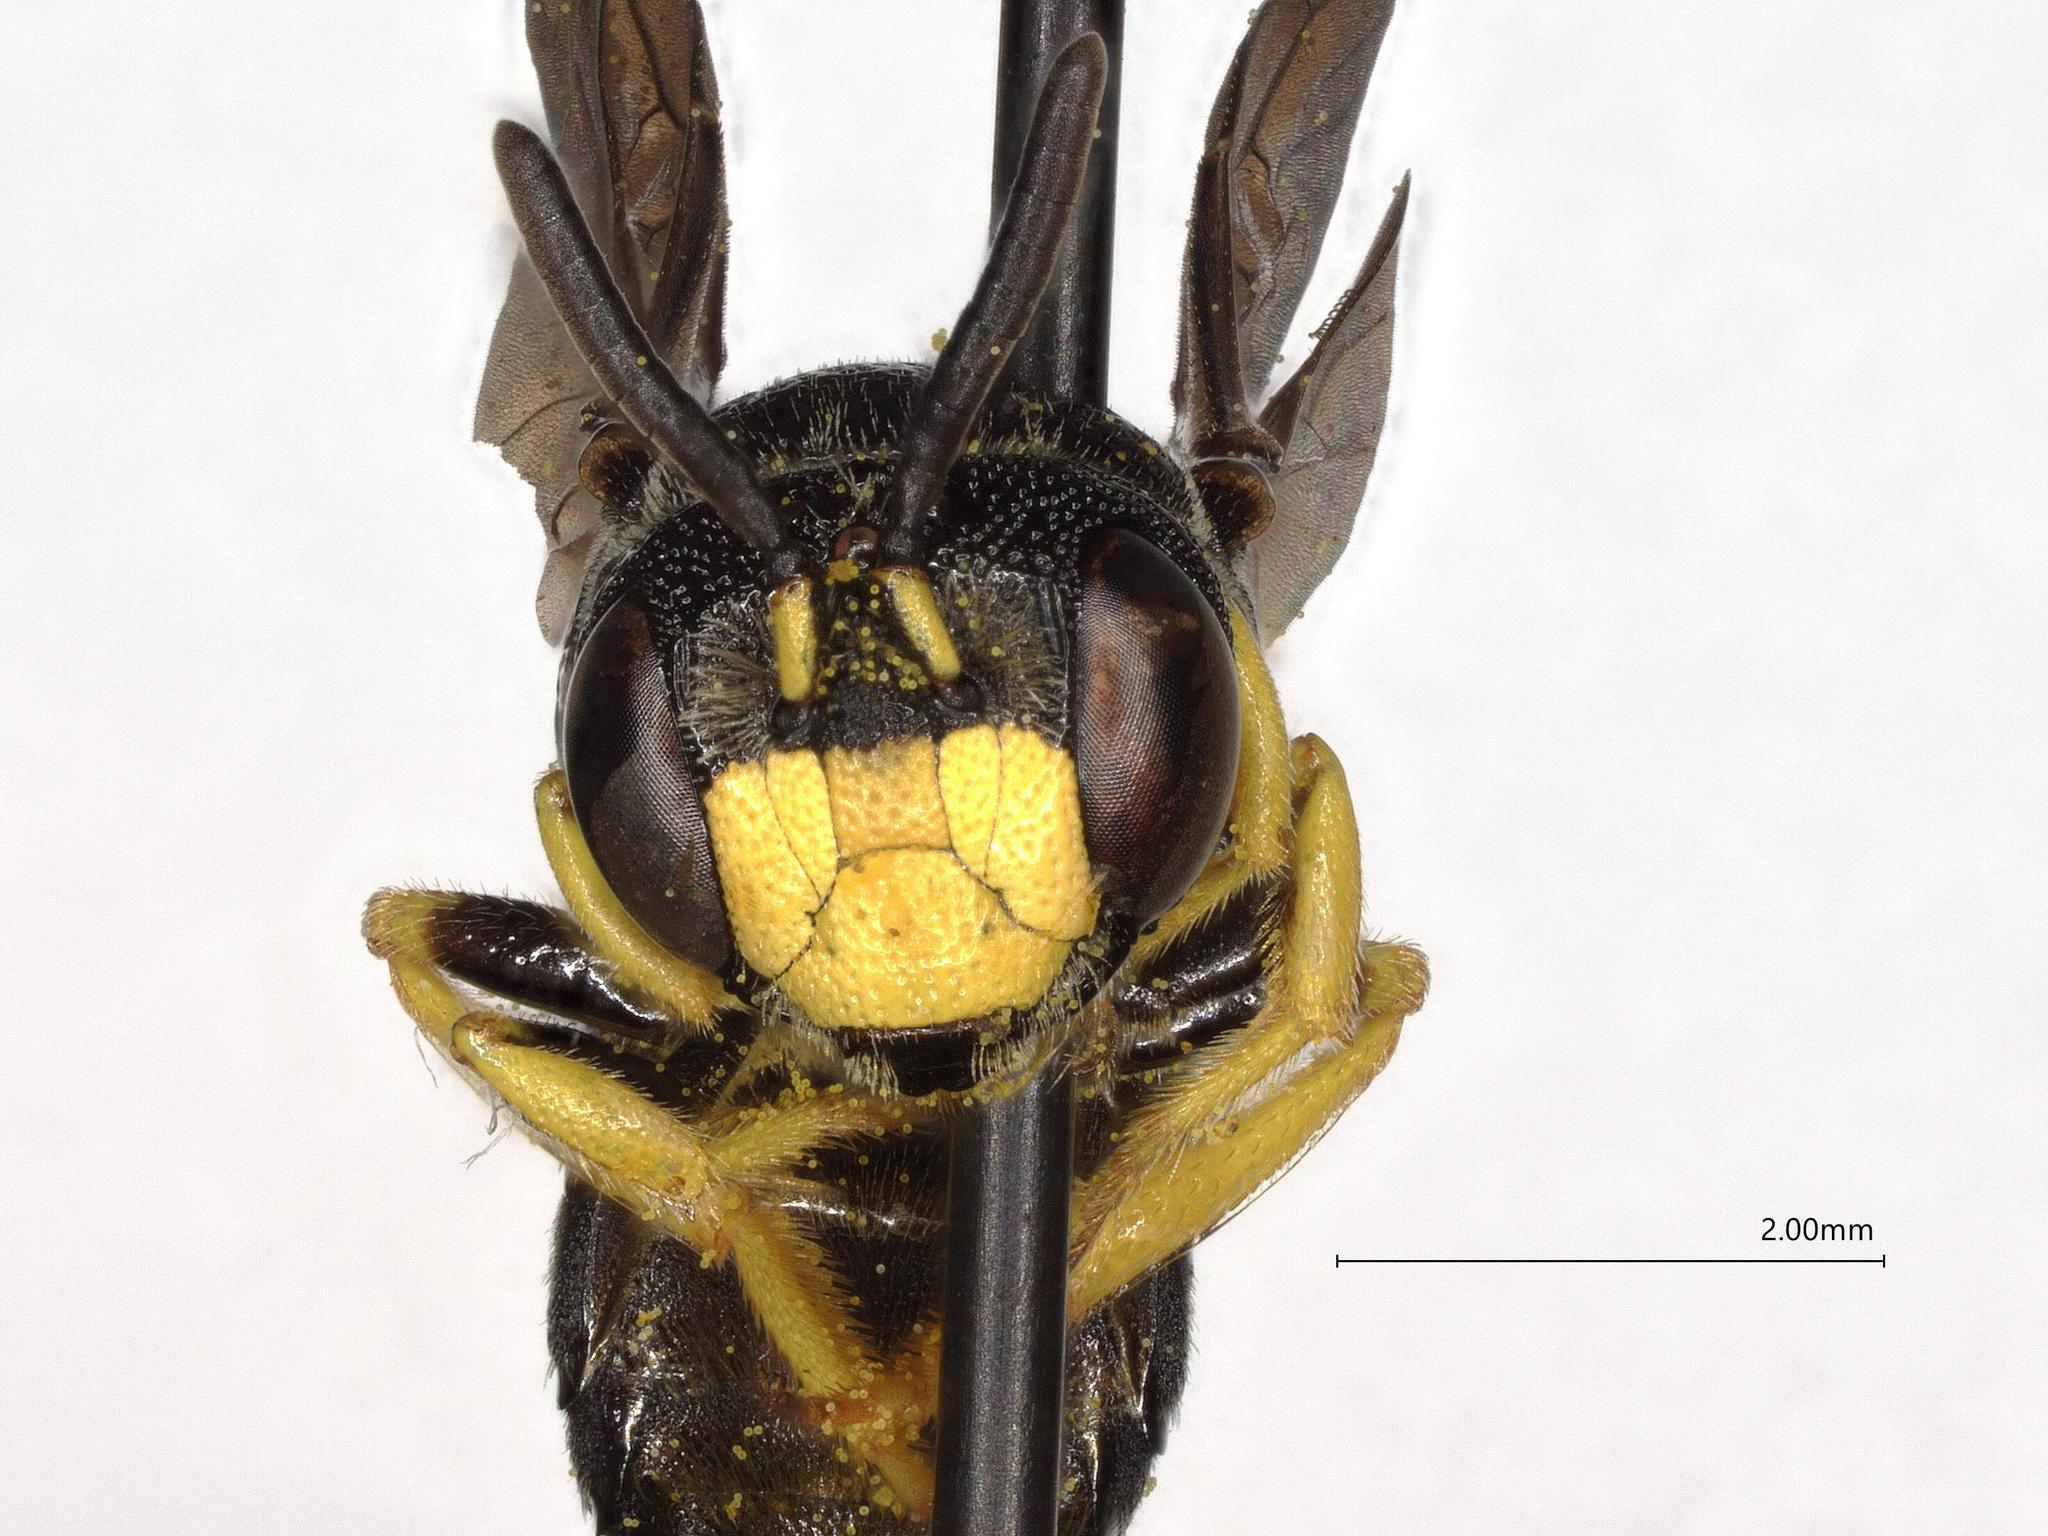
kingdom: Animalia
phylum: Arthropoda
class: Insecta
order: Hymenoptera
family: Andrenidae
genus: Protandrena
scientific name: Protandrena
